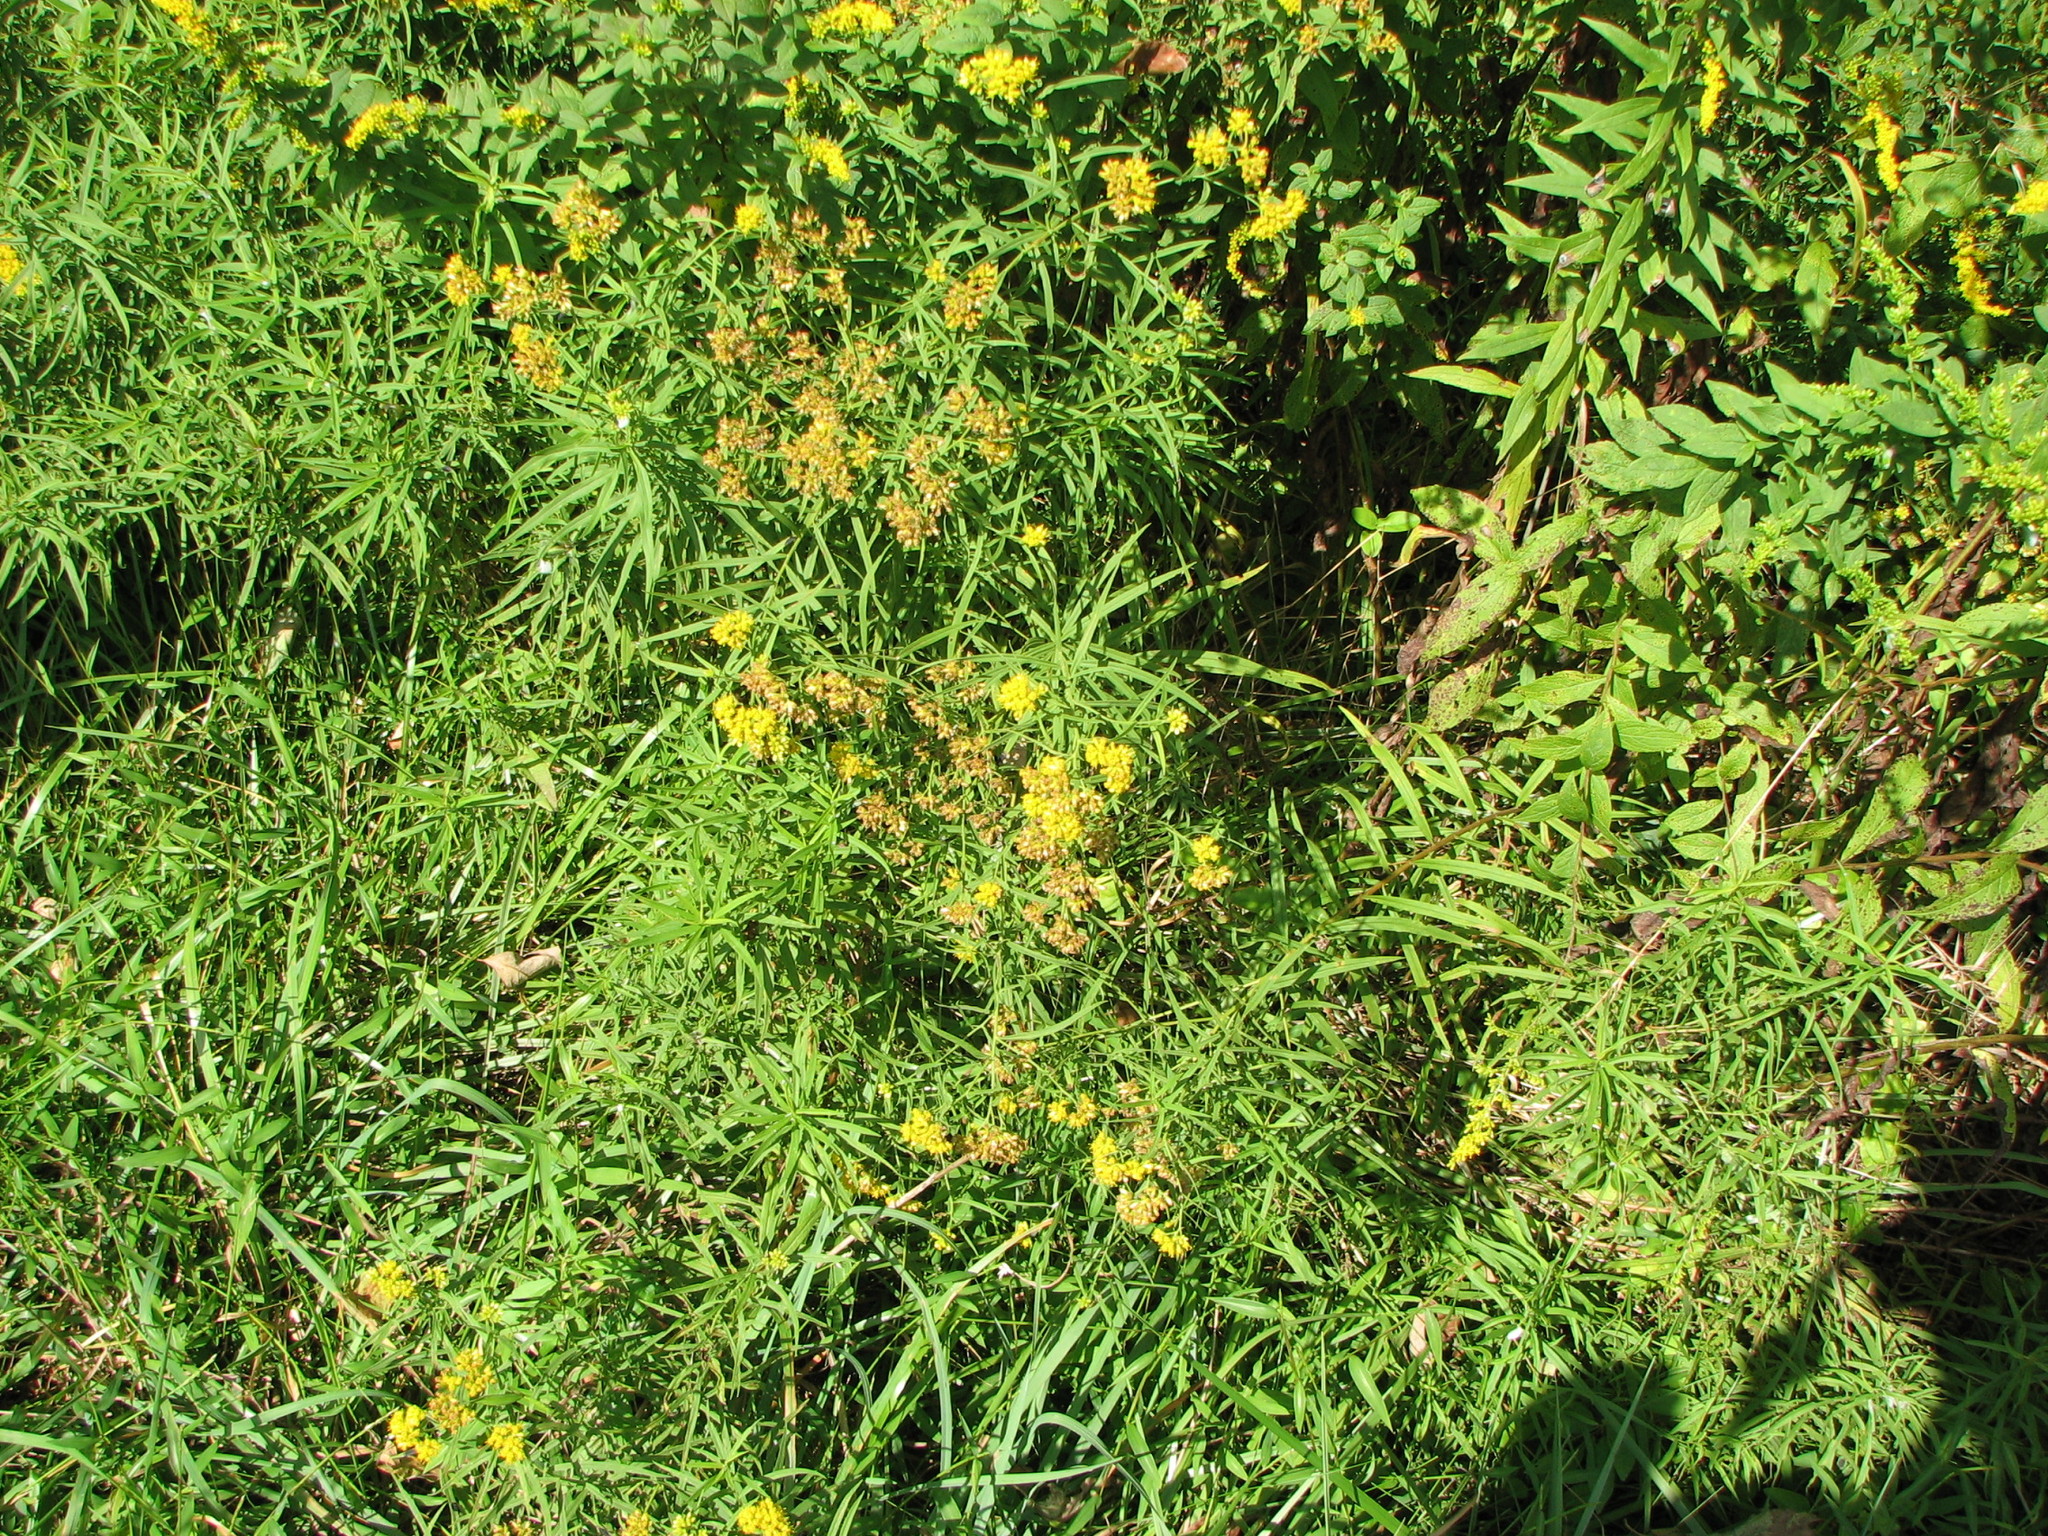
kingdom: Plantae
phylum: Tracheophyta
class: Magnoliopsida
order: Asterales
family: Asteraceae
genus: Euthamia
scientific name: Euthamia graminifolia
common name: Common goldentop
